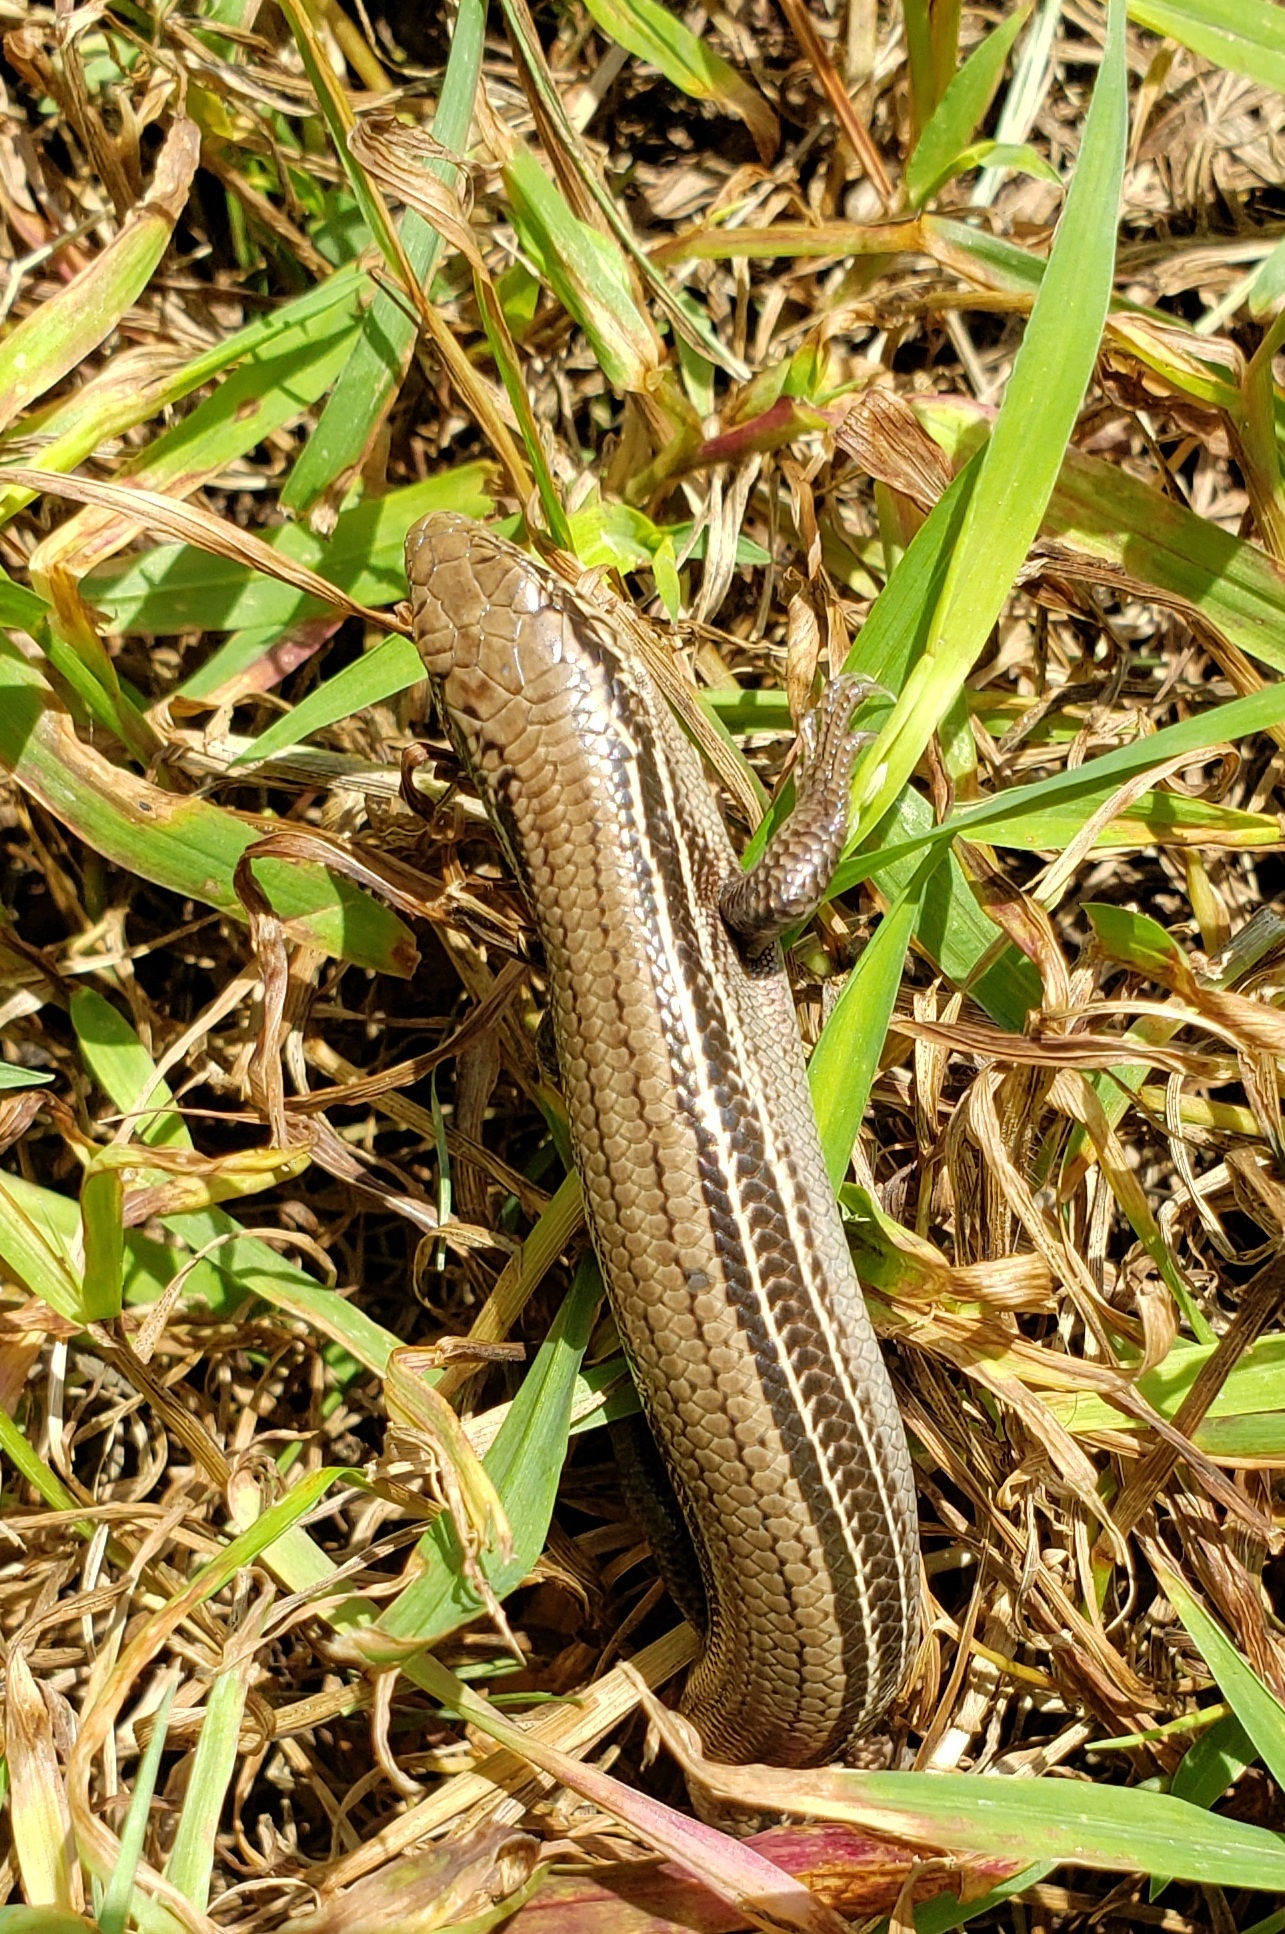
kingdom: Animalia
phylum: Chordata
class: Squamata
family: Scincidae
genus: Plestiodon
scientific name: Plestiodon septentrionalis
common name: Northern prairie skink
